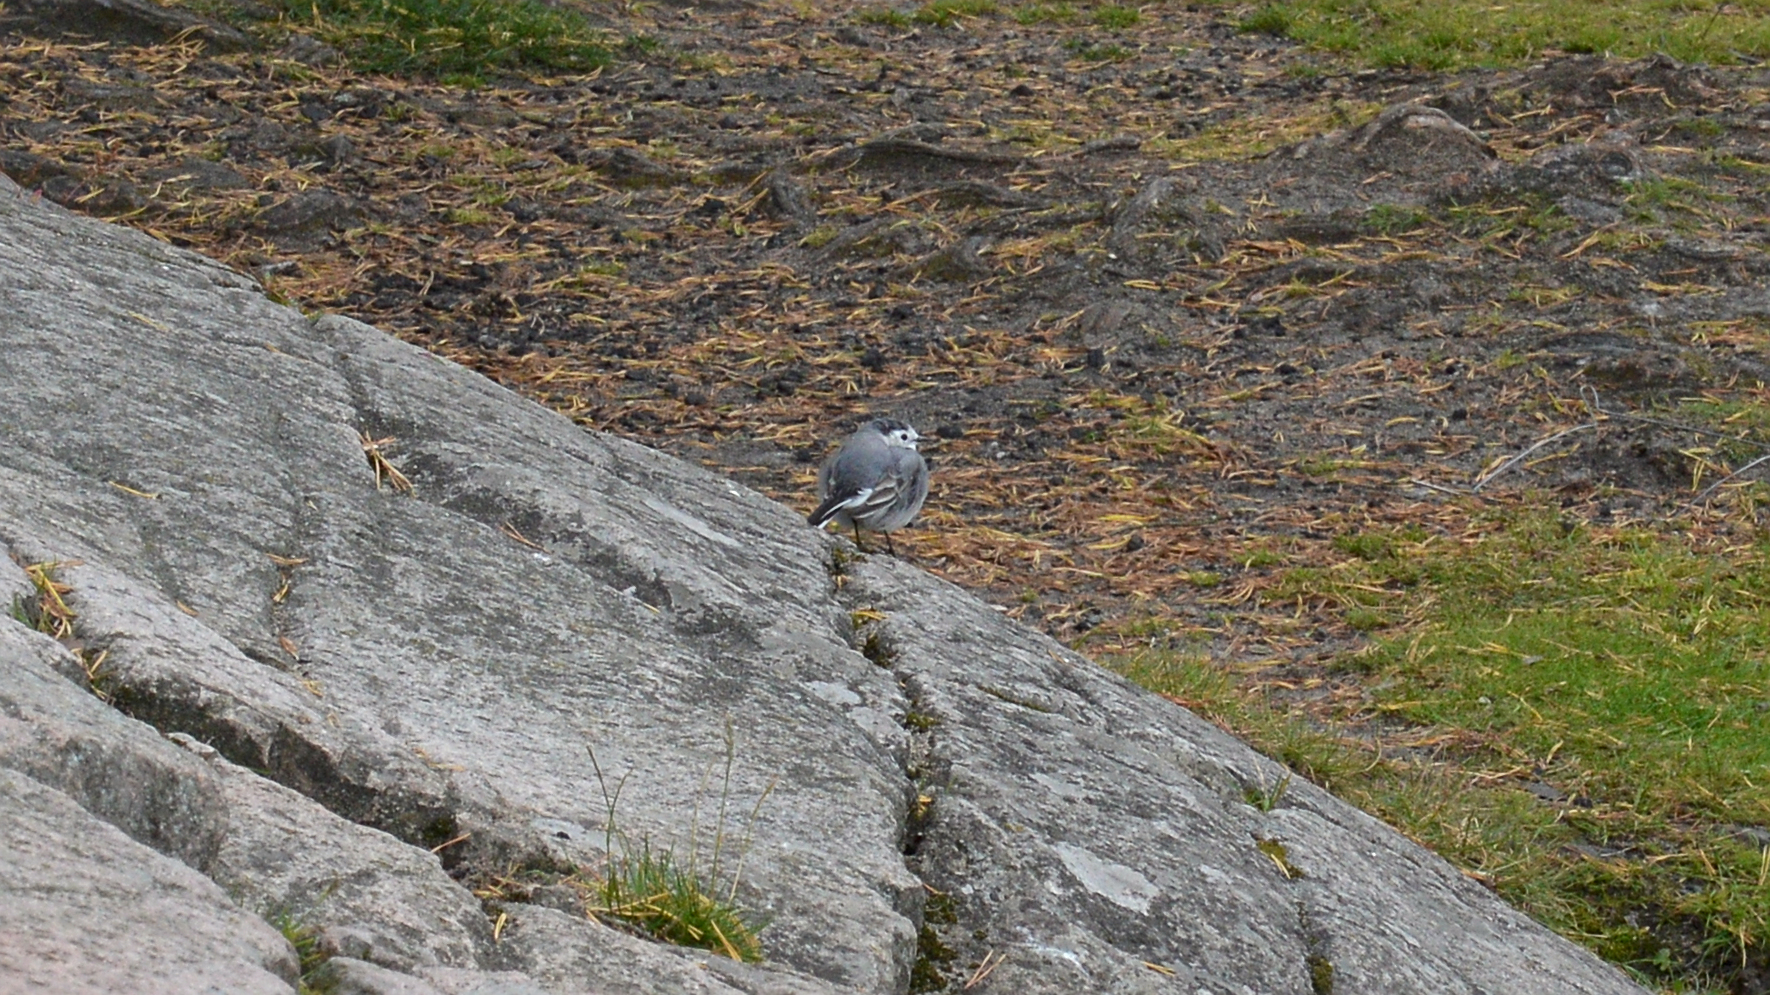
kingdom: Animalia
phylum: Chordata
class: Aves
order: Passeriformes
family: Motacillidae
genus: Motacilla
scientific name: Motacilla alba
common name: White wagtail
